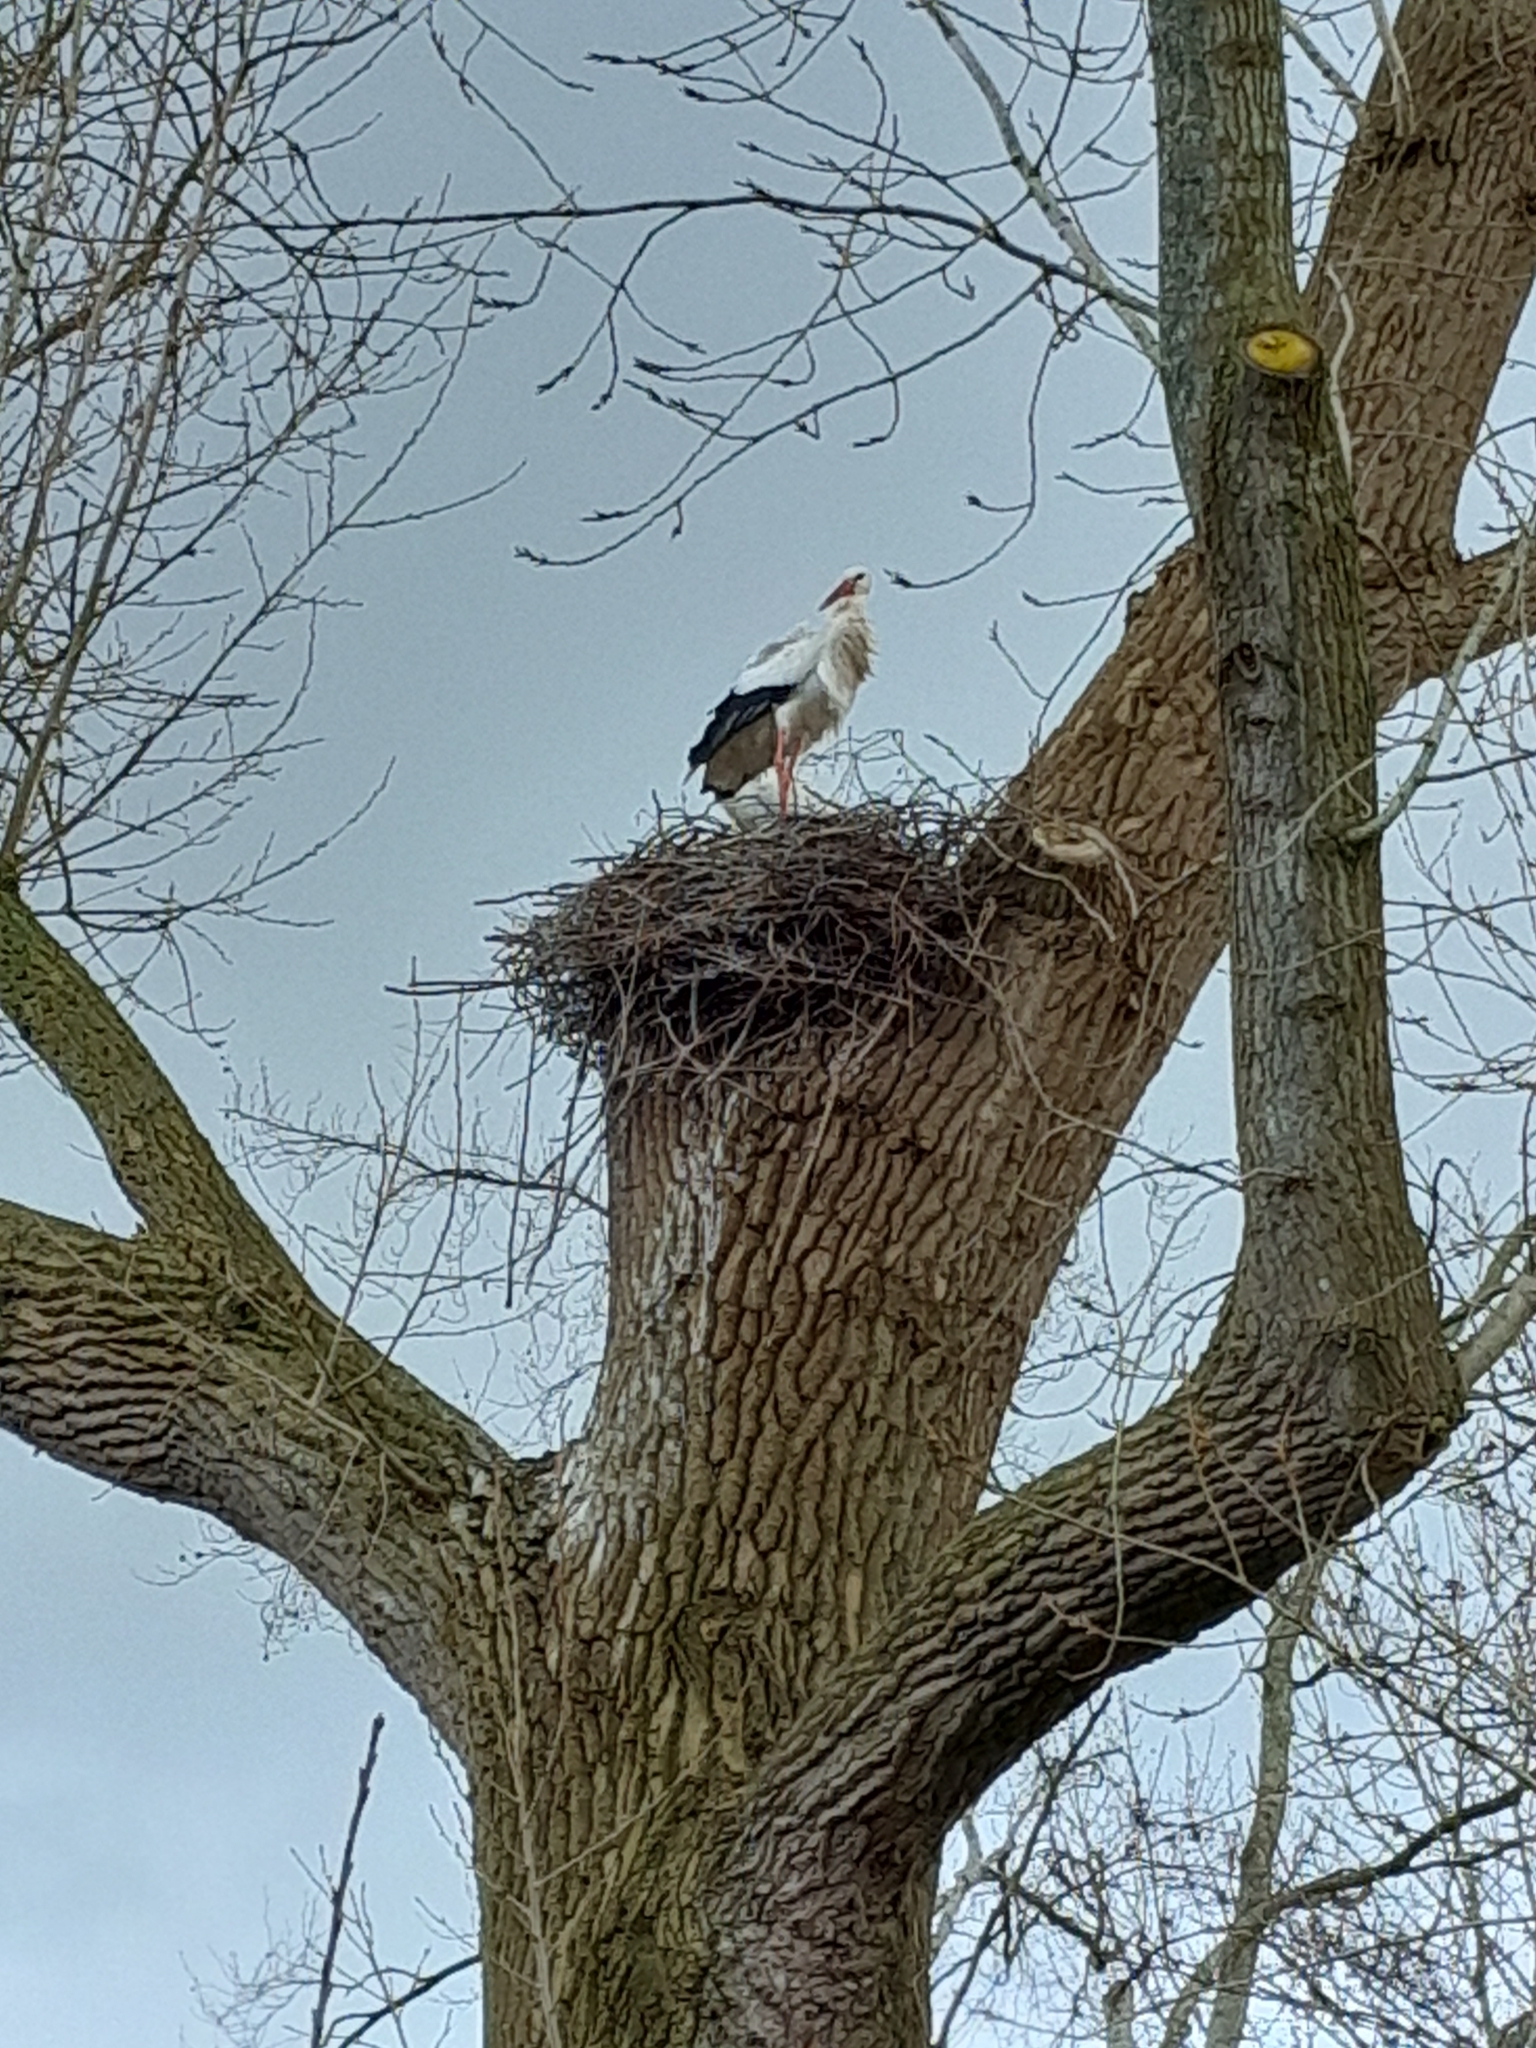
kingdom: Animalia
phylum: Chordata
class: Aves
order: Ciconiiformes
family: Ciconiidae
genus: Ciconia
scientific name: Ciconia ciconia
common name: White stork
